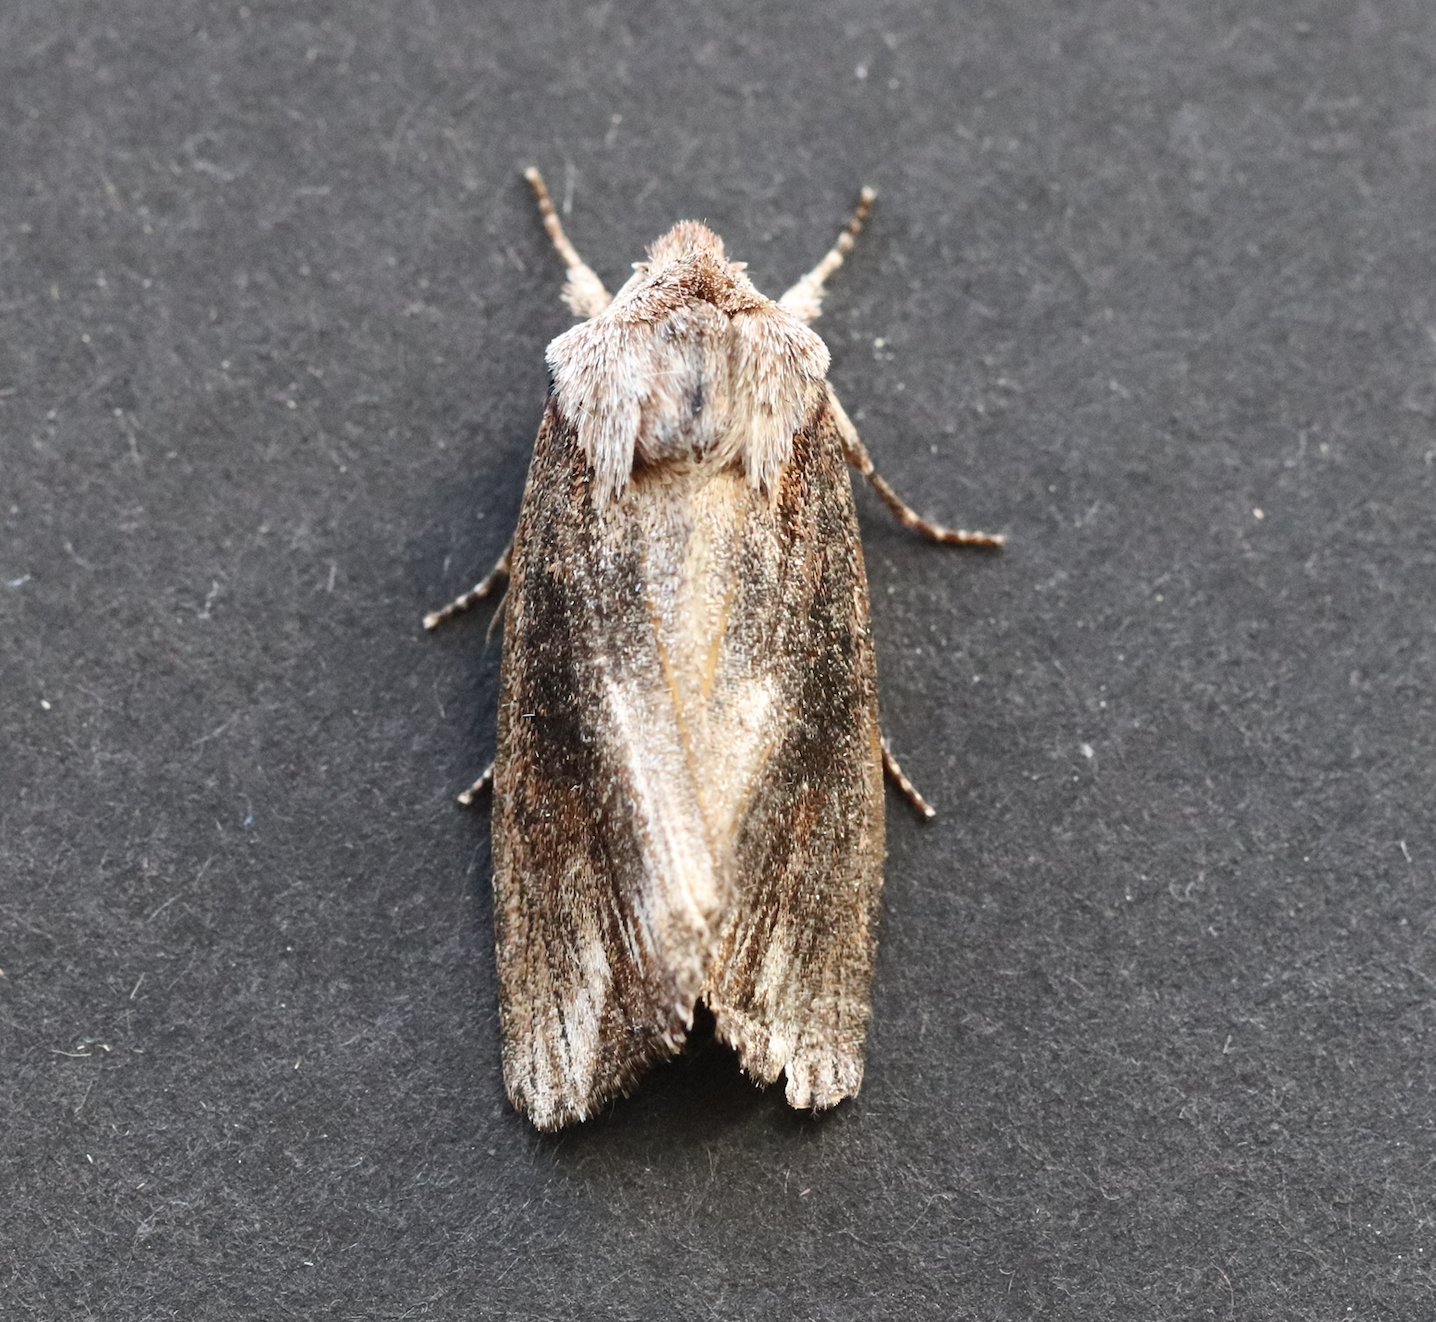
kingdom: Animalia
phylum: Arthropoda
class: Insecta
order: Lepidoptera
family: Noctuidae
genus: Egira
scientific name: Egira conspicillaris
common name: Silver cloud
